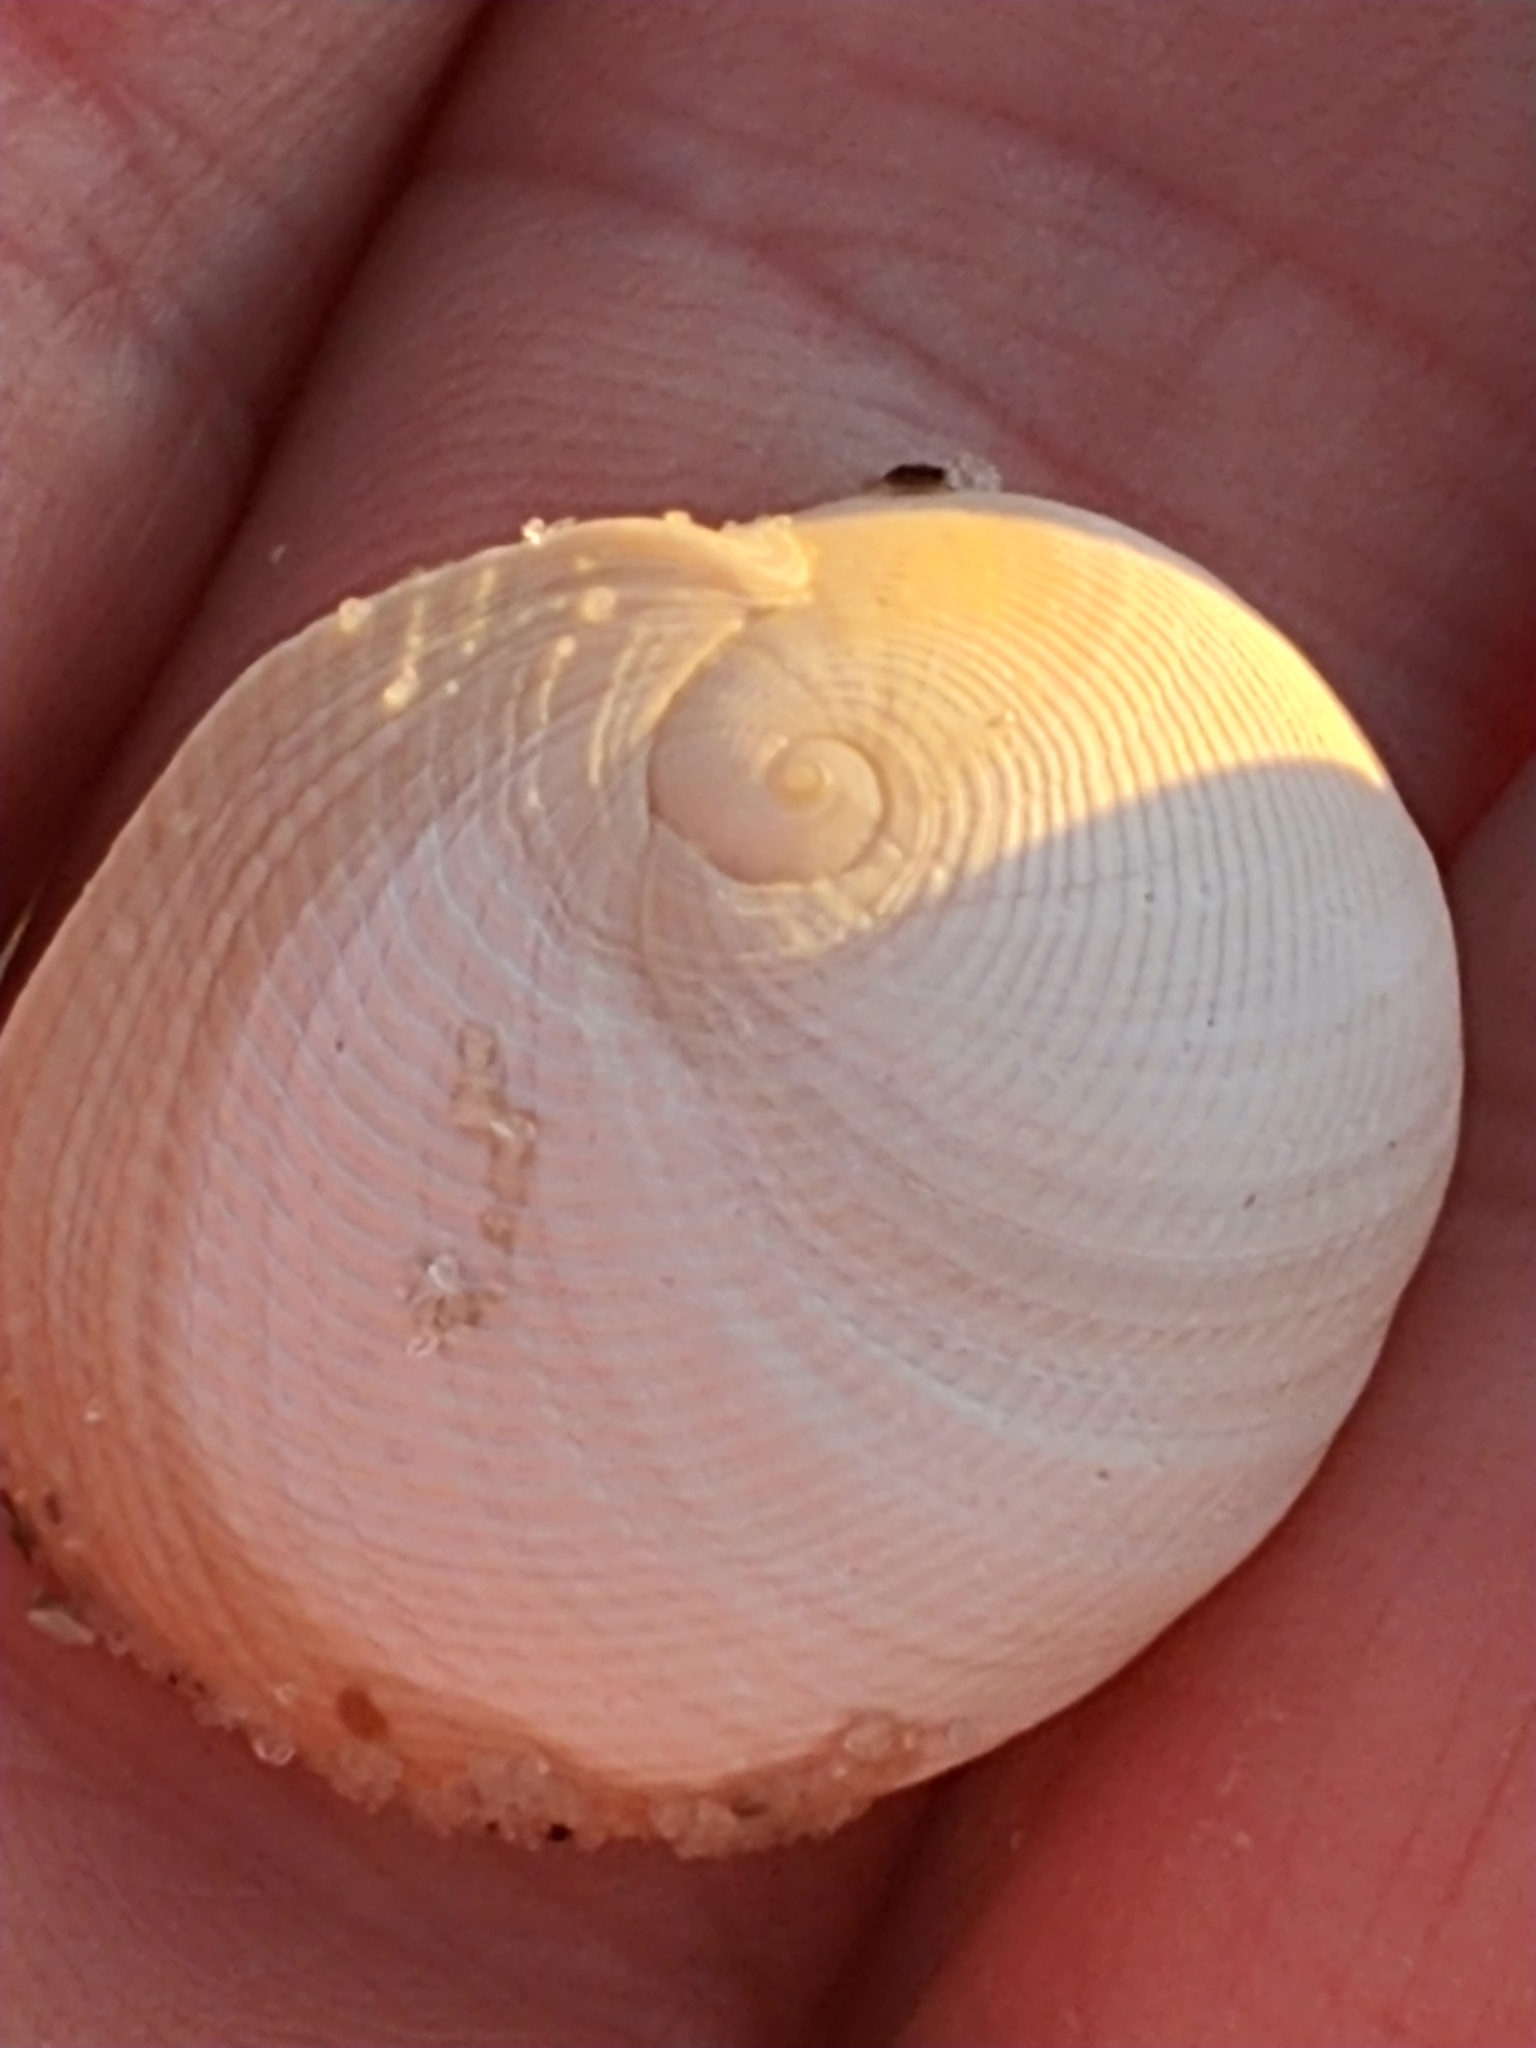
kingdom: Animalia
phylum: Mollusca
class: Gastropoda
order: Littorinimorpha
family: Naticidae
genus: Sinum
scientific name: Sinum perspectivum
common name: White baby ear
